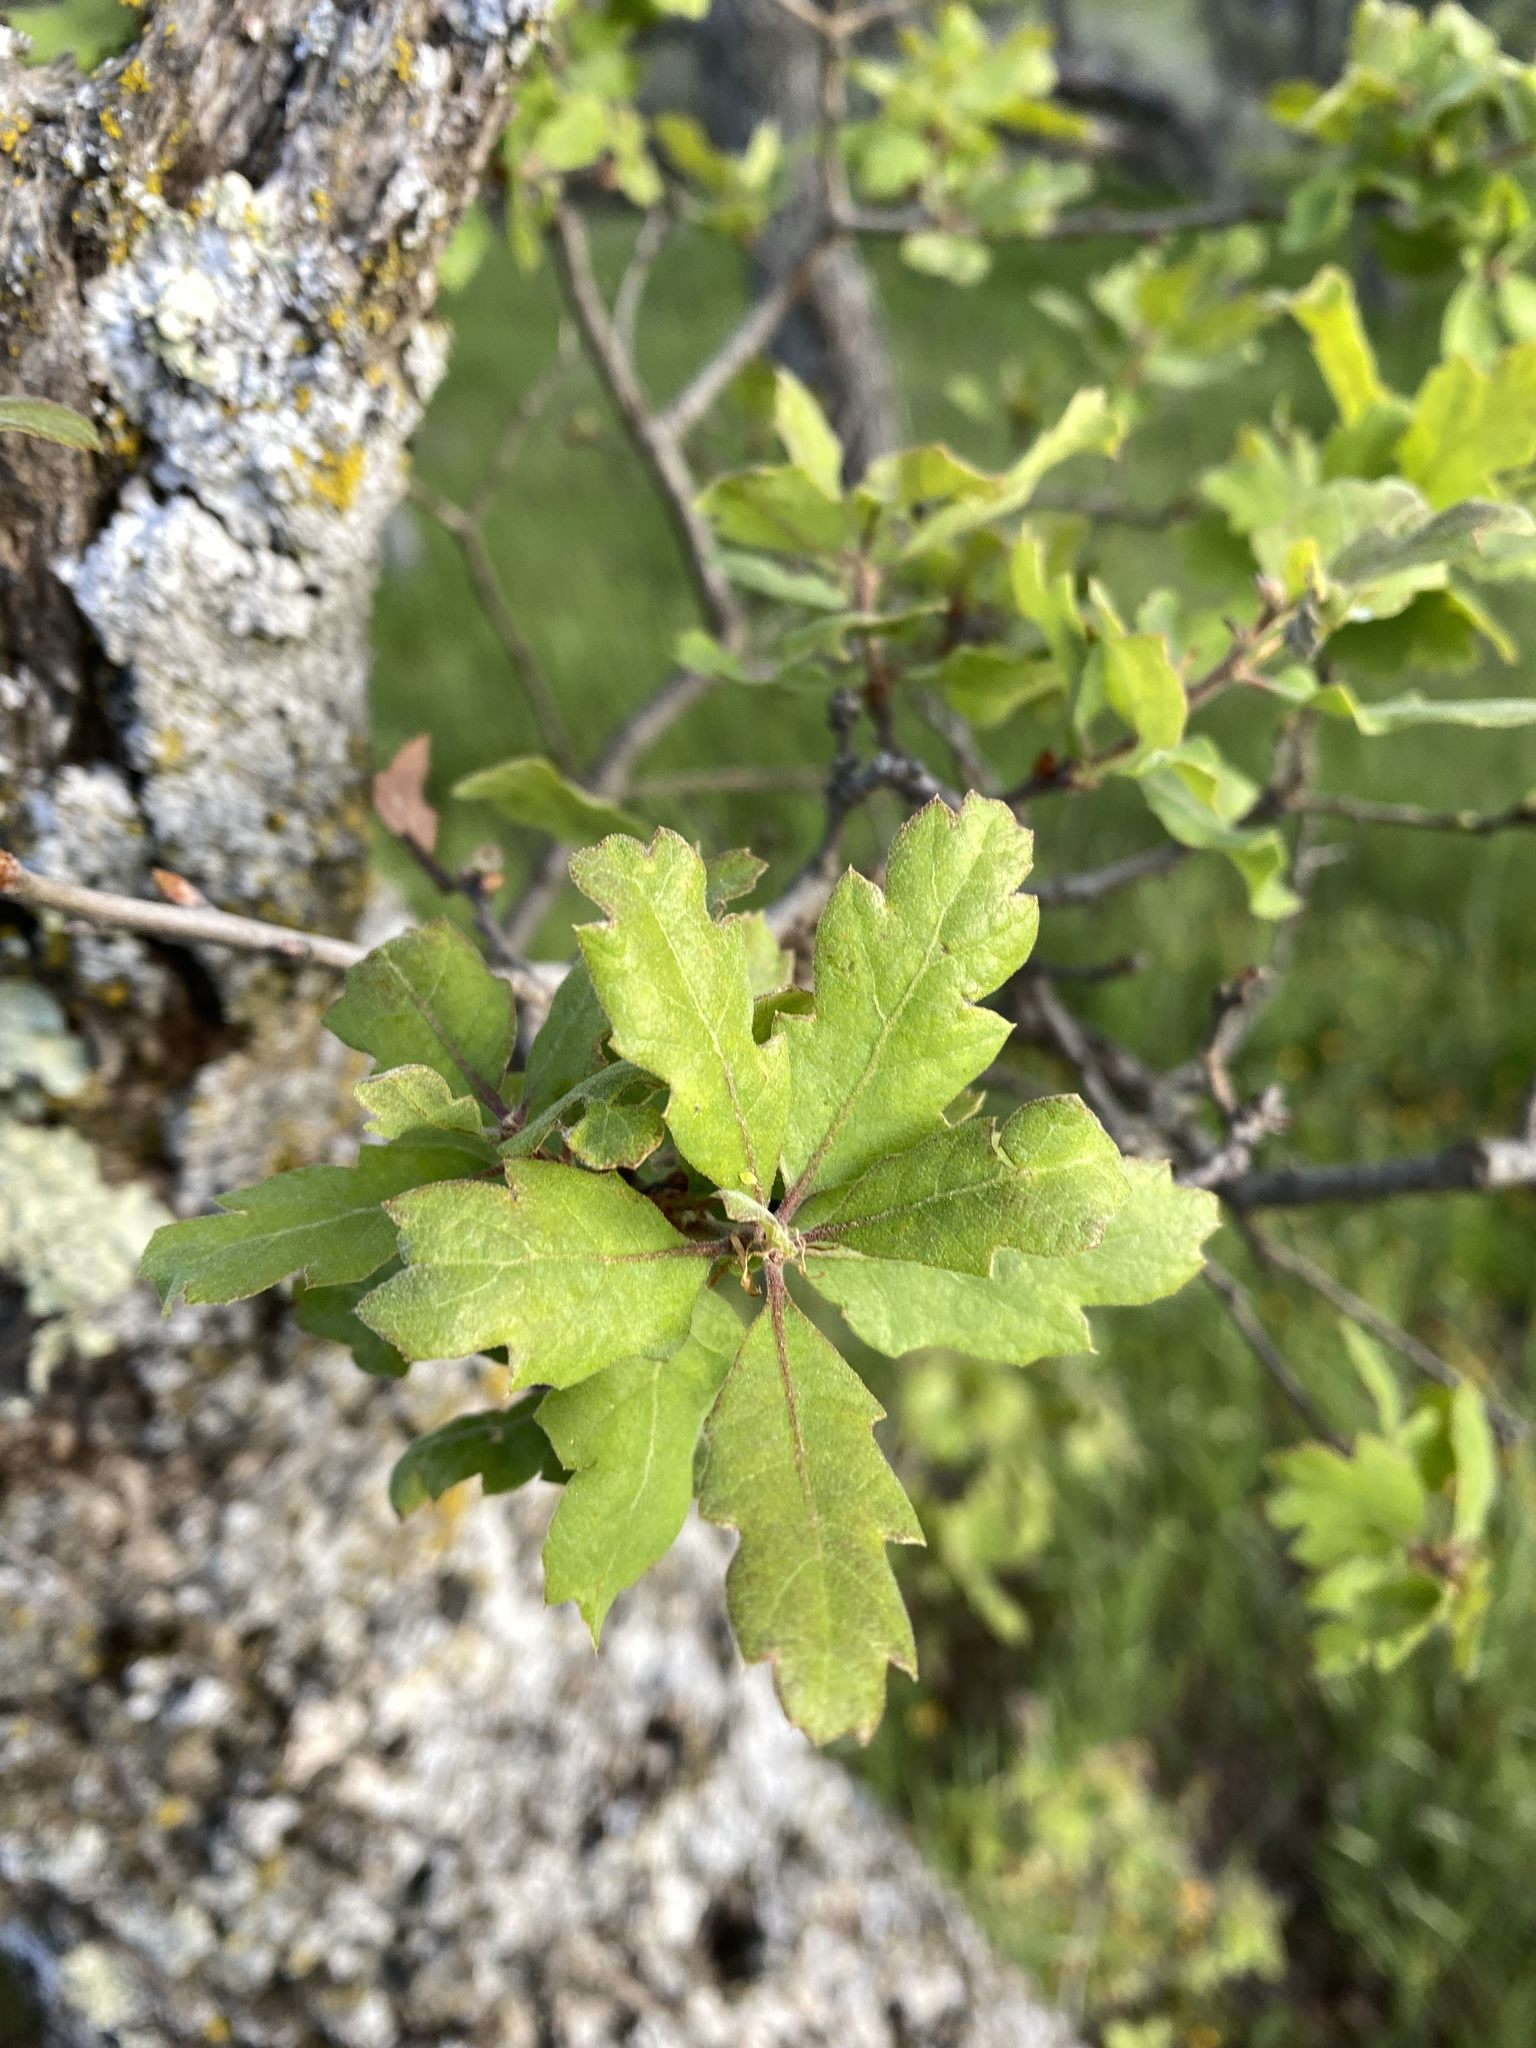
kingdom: Plantae
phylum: Tracheophyta
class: Magnoliopsida
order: Fagales
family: Fagaceae
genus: Quercus
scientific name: Quercus douglasii
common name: Blue oak
